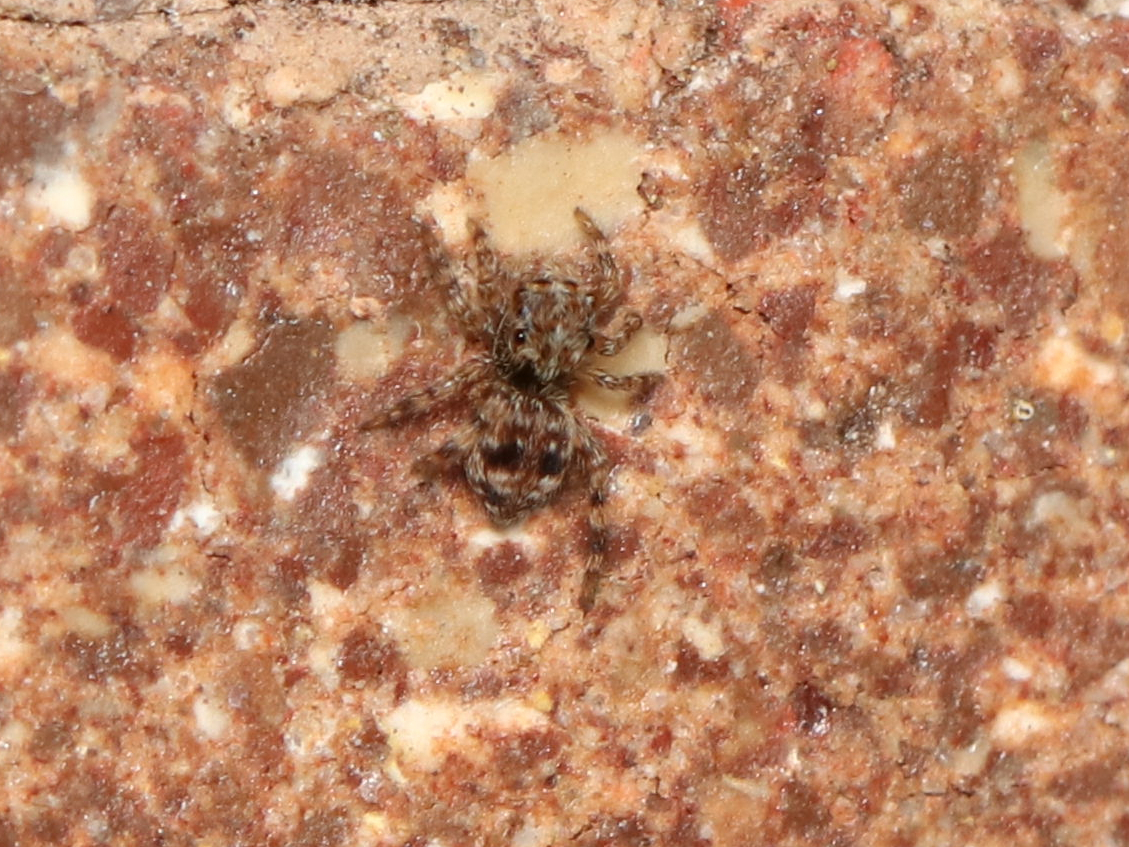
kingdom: Animalia
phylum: Arthropoda
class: Arachnida
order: Araneae
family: Salticidae
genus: Attulus
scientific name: Attulus fasciger
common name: Asiatic wall jumping spider
